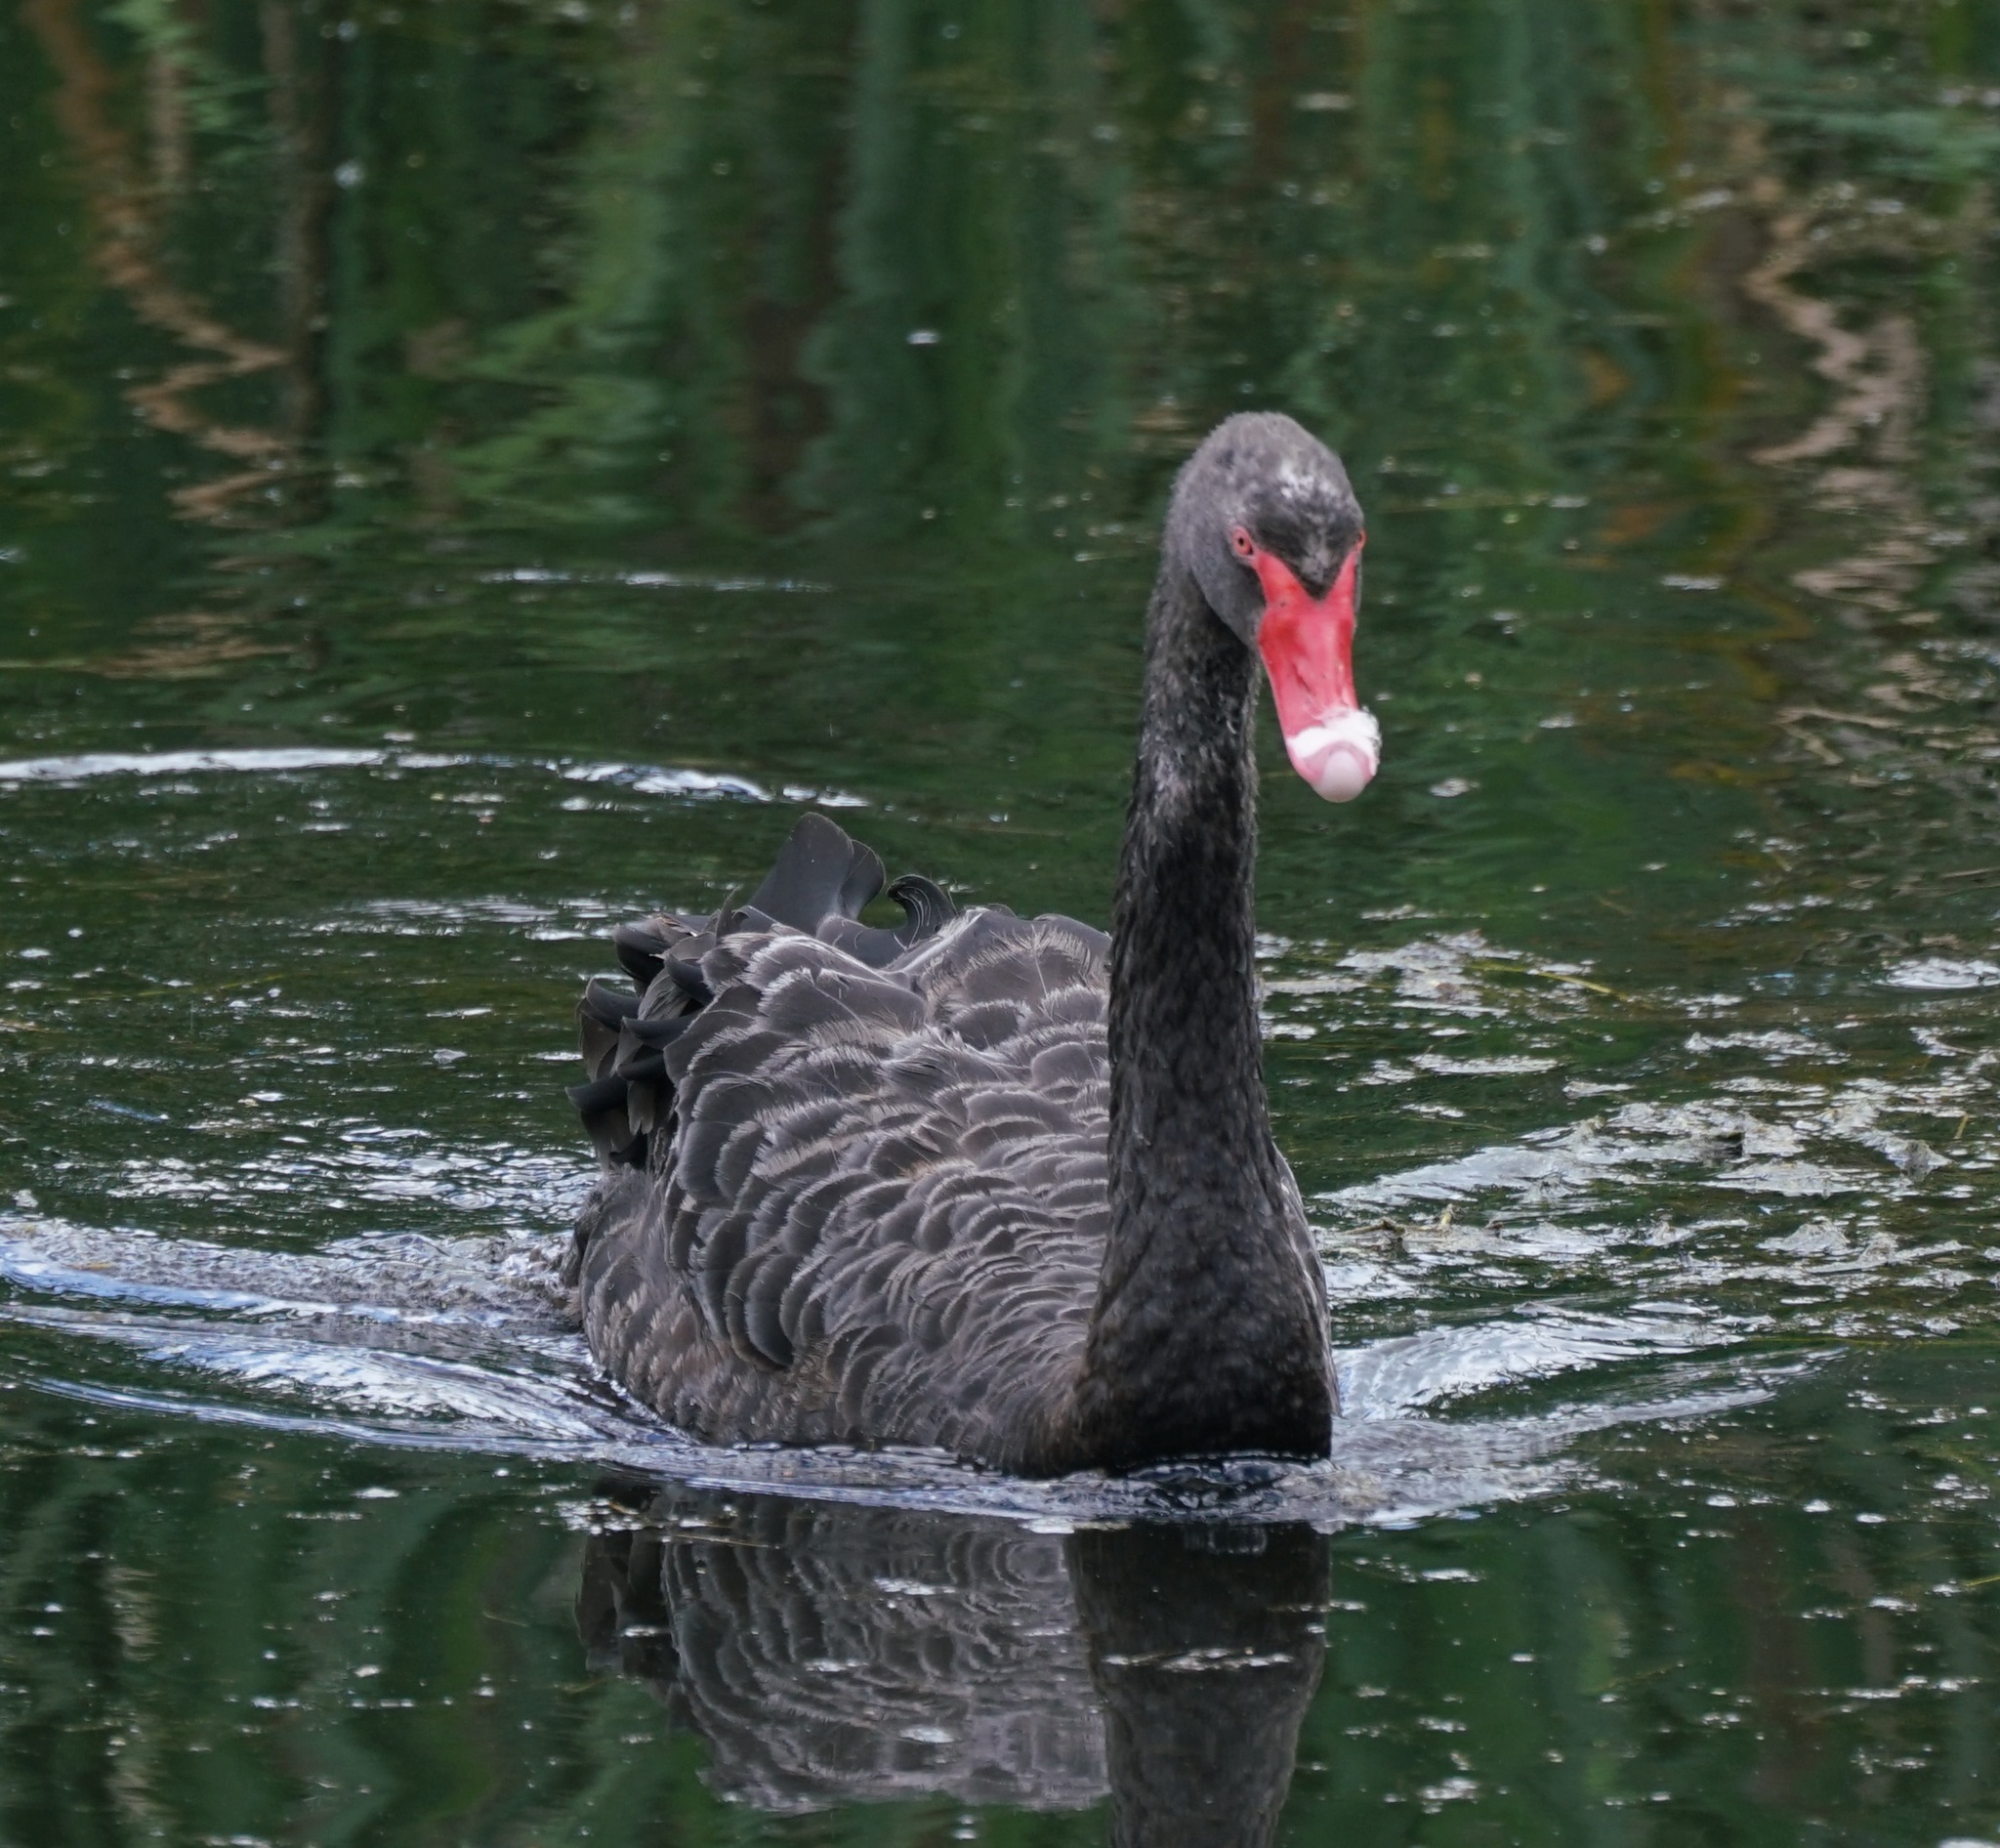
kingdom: Animalia
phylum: Chordata
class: Aves
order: Anseriformes
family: Anatidae
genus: Cygnus
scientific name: Cygnus atratus
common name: Black swan
